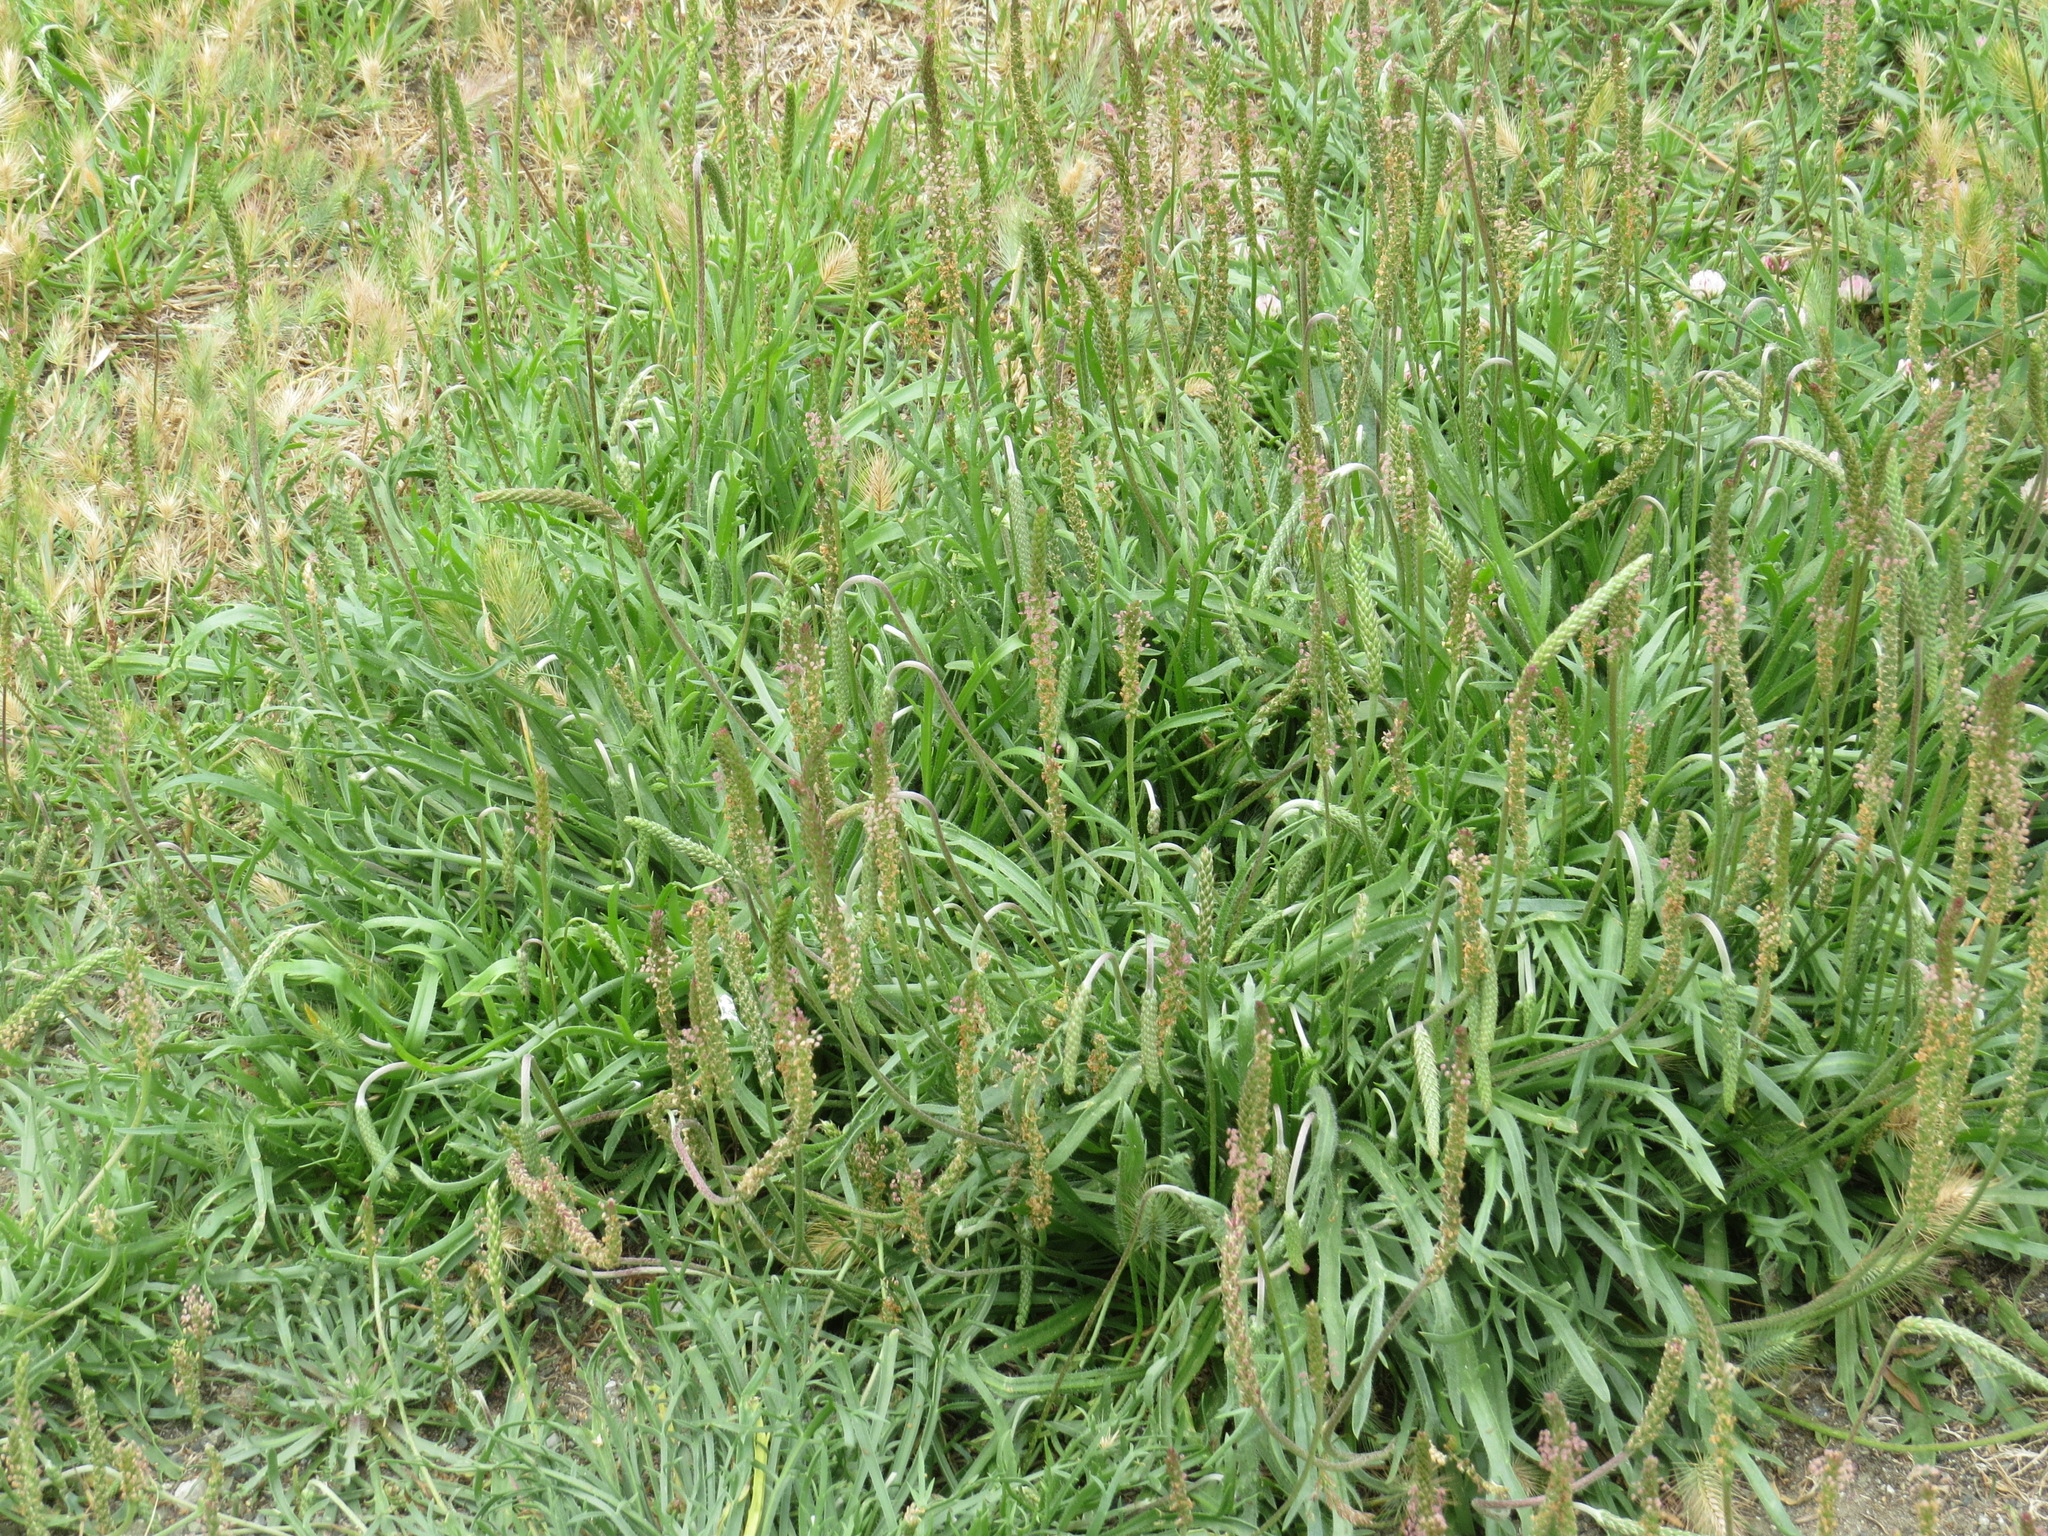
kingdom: Plantae
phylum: Tracheophyta
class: Magnoliopsida
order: Lamiales
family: Plantaginaceae
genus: Plantago
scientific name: Plantago coronopus
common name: Buck's-horn plantain
